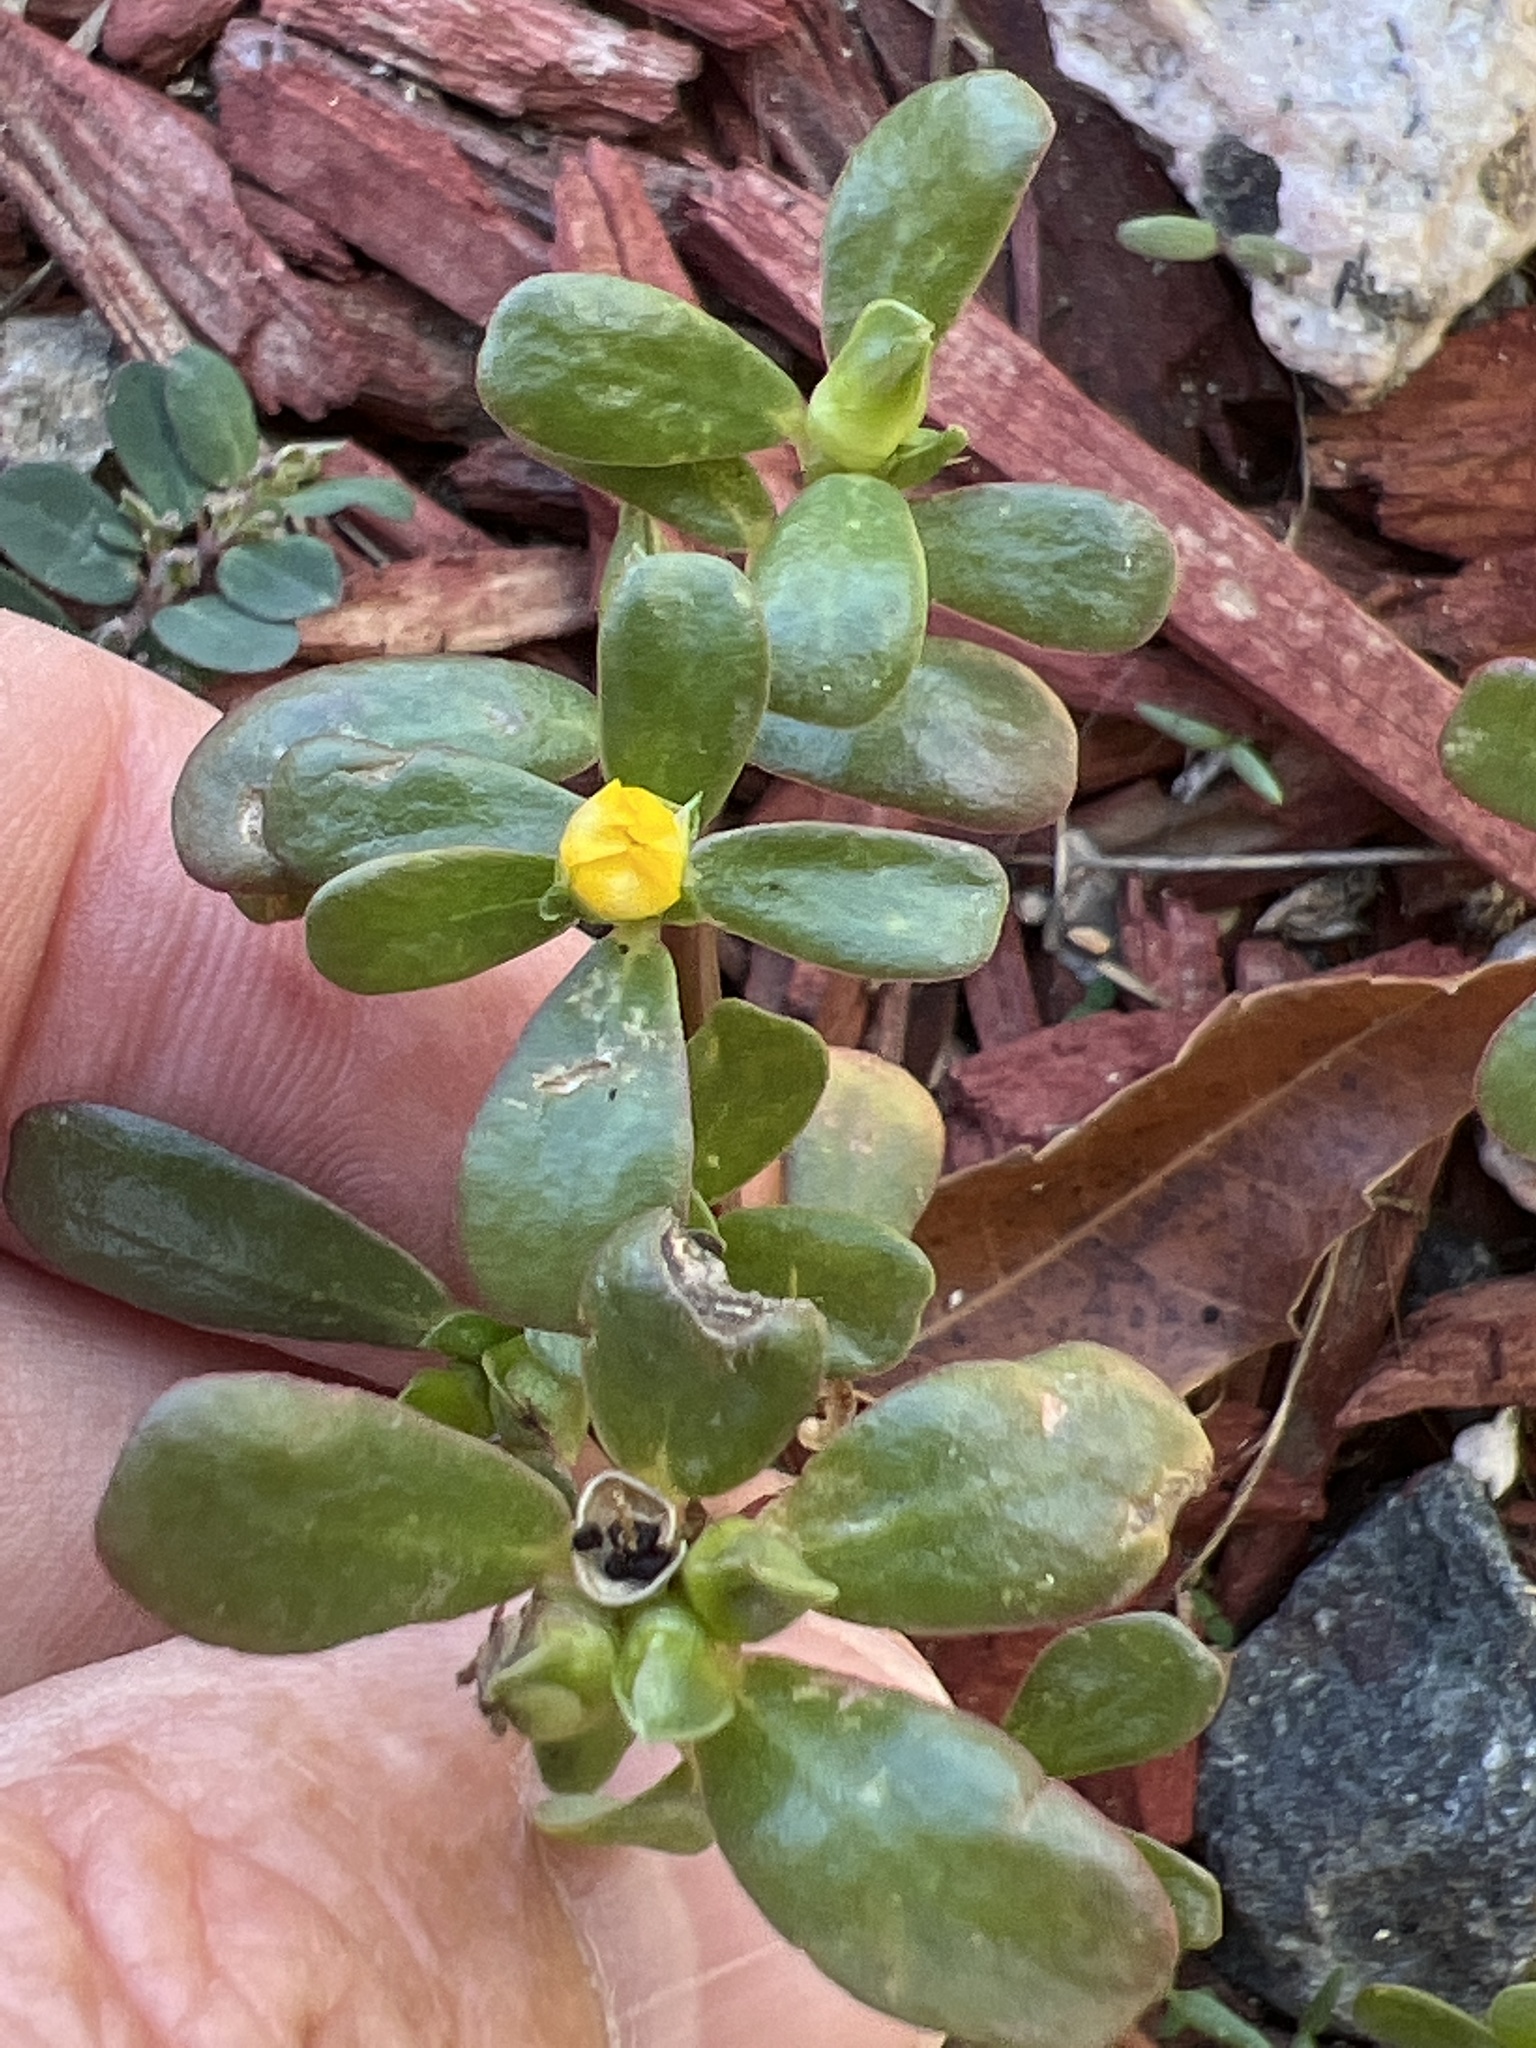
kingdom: Plantae
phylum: Tracheophyta
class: Magnoliopsida
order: Caryophyllales
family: Portulacaceae
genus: Portulaca
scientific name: Portulaca oleracea
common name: Common purslane
